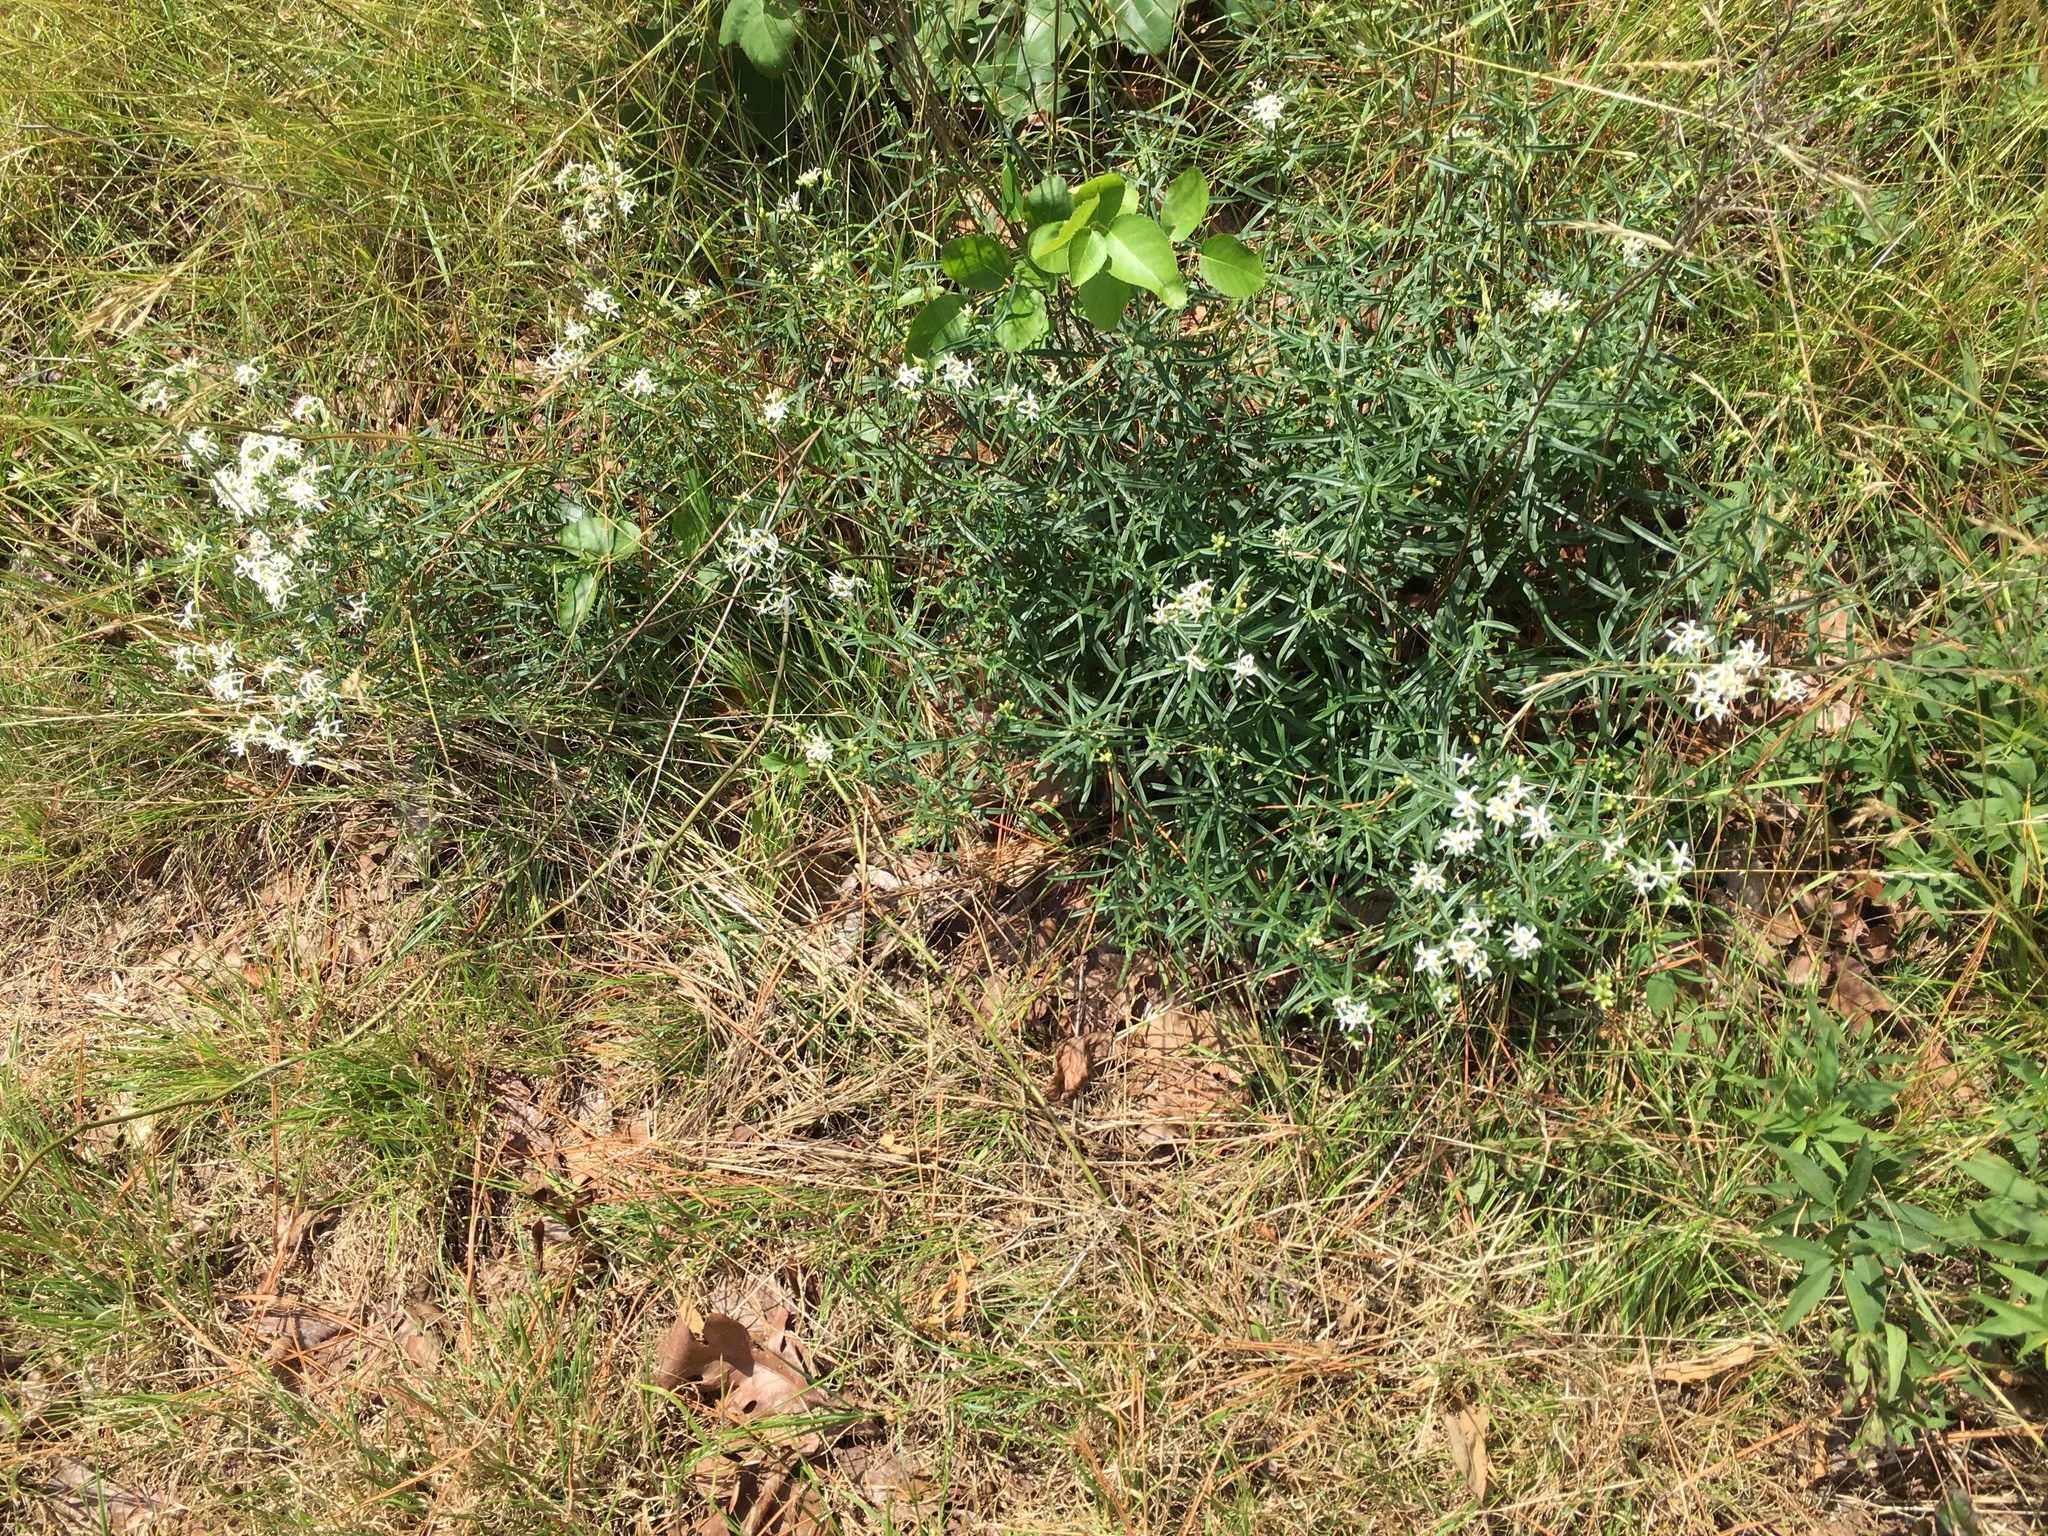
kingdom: Plantae
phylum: Tracheophyta
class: Magnoliopsida
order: Asterales
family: Asteraceae
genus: Sericocarpus
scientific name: Sericocarpus linifolius
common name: Narrow-leaf aster
